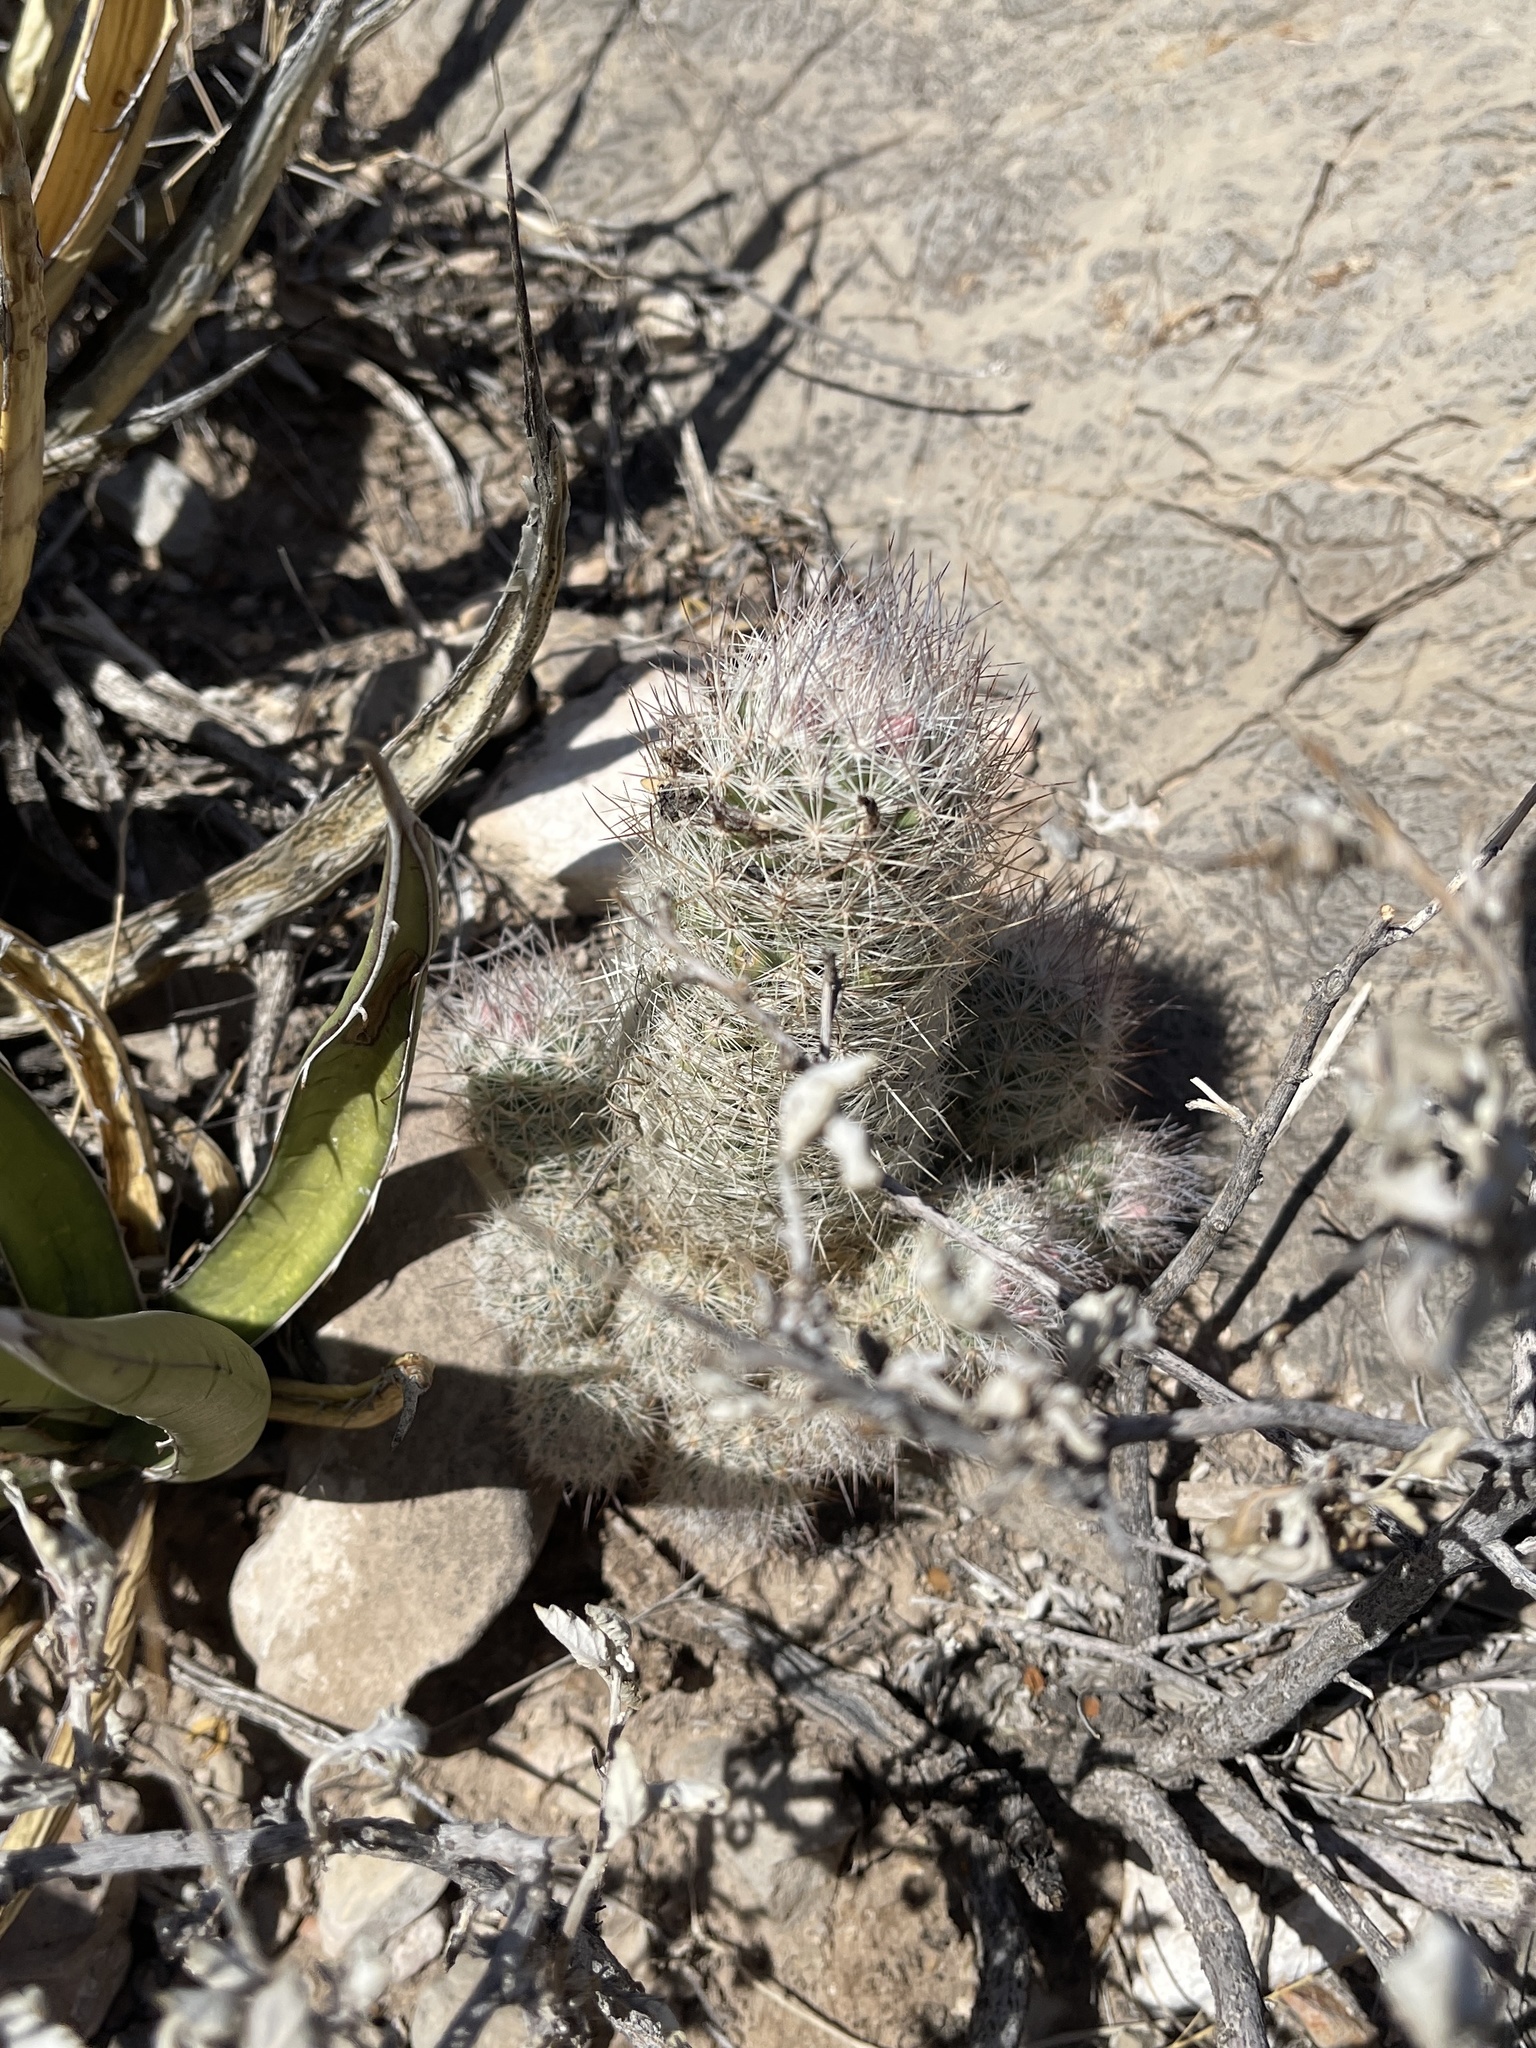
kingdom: Plantae
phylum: Tracheophyta
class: Magnoliopsida
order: Caryophyllales
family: Cactaceae
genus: Pelecyphora
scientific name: Pelecyphora tuberculosa
